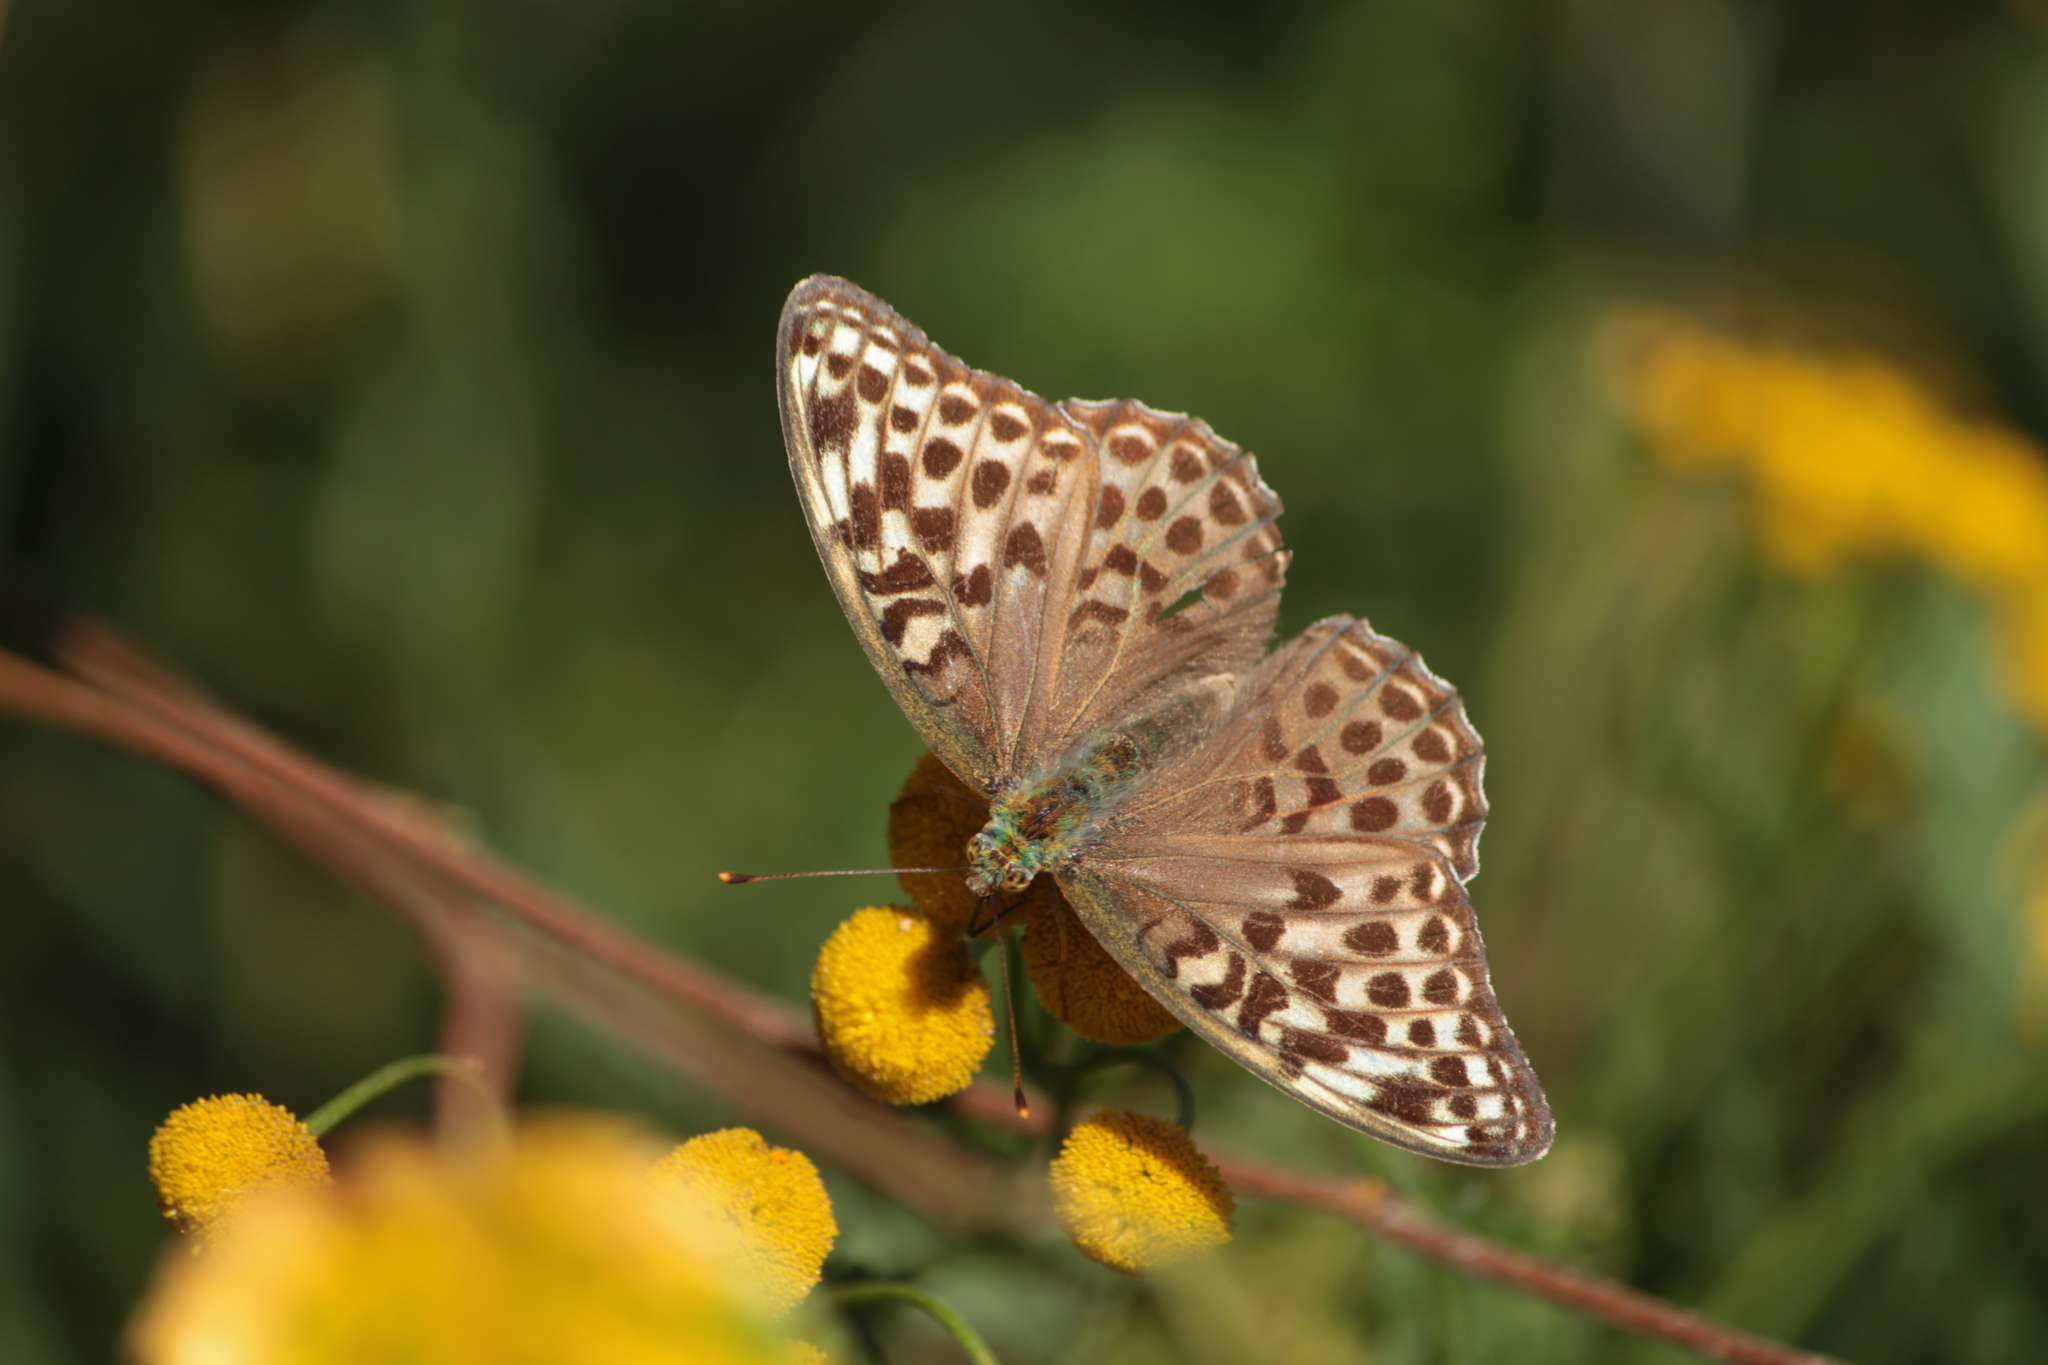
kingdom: Animalia
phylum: Arthropoda
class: Insecta
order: Lepidoptera
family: Nymphalidae
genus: Argynnis
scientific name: Argynnis paphia
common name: Silver-washed fritillary
